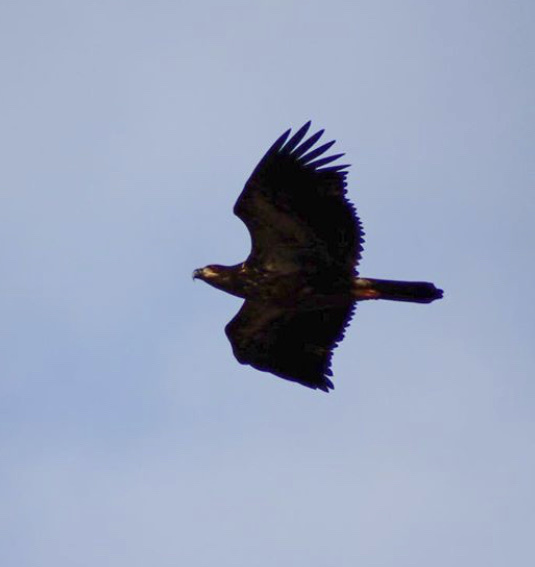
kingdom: Animalia
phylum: Chordata
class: Aves
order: Accipitriformes
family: Accipitridae
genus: Haliaeetus
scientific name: Haliaeetus leucocephalus
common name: Bald eagle
